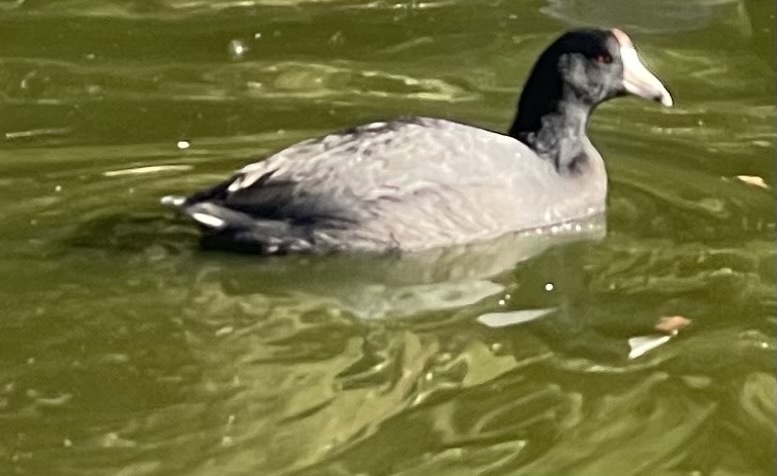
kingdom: Animalia
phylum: Chordata
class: Aves
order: Gruiformes
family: Rallidae
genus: Fulica
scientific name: Fulica americana
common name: American coot
